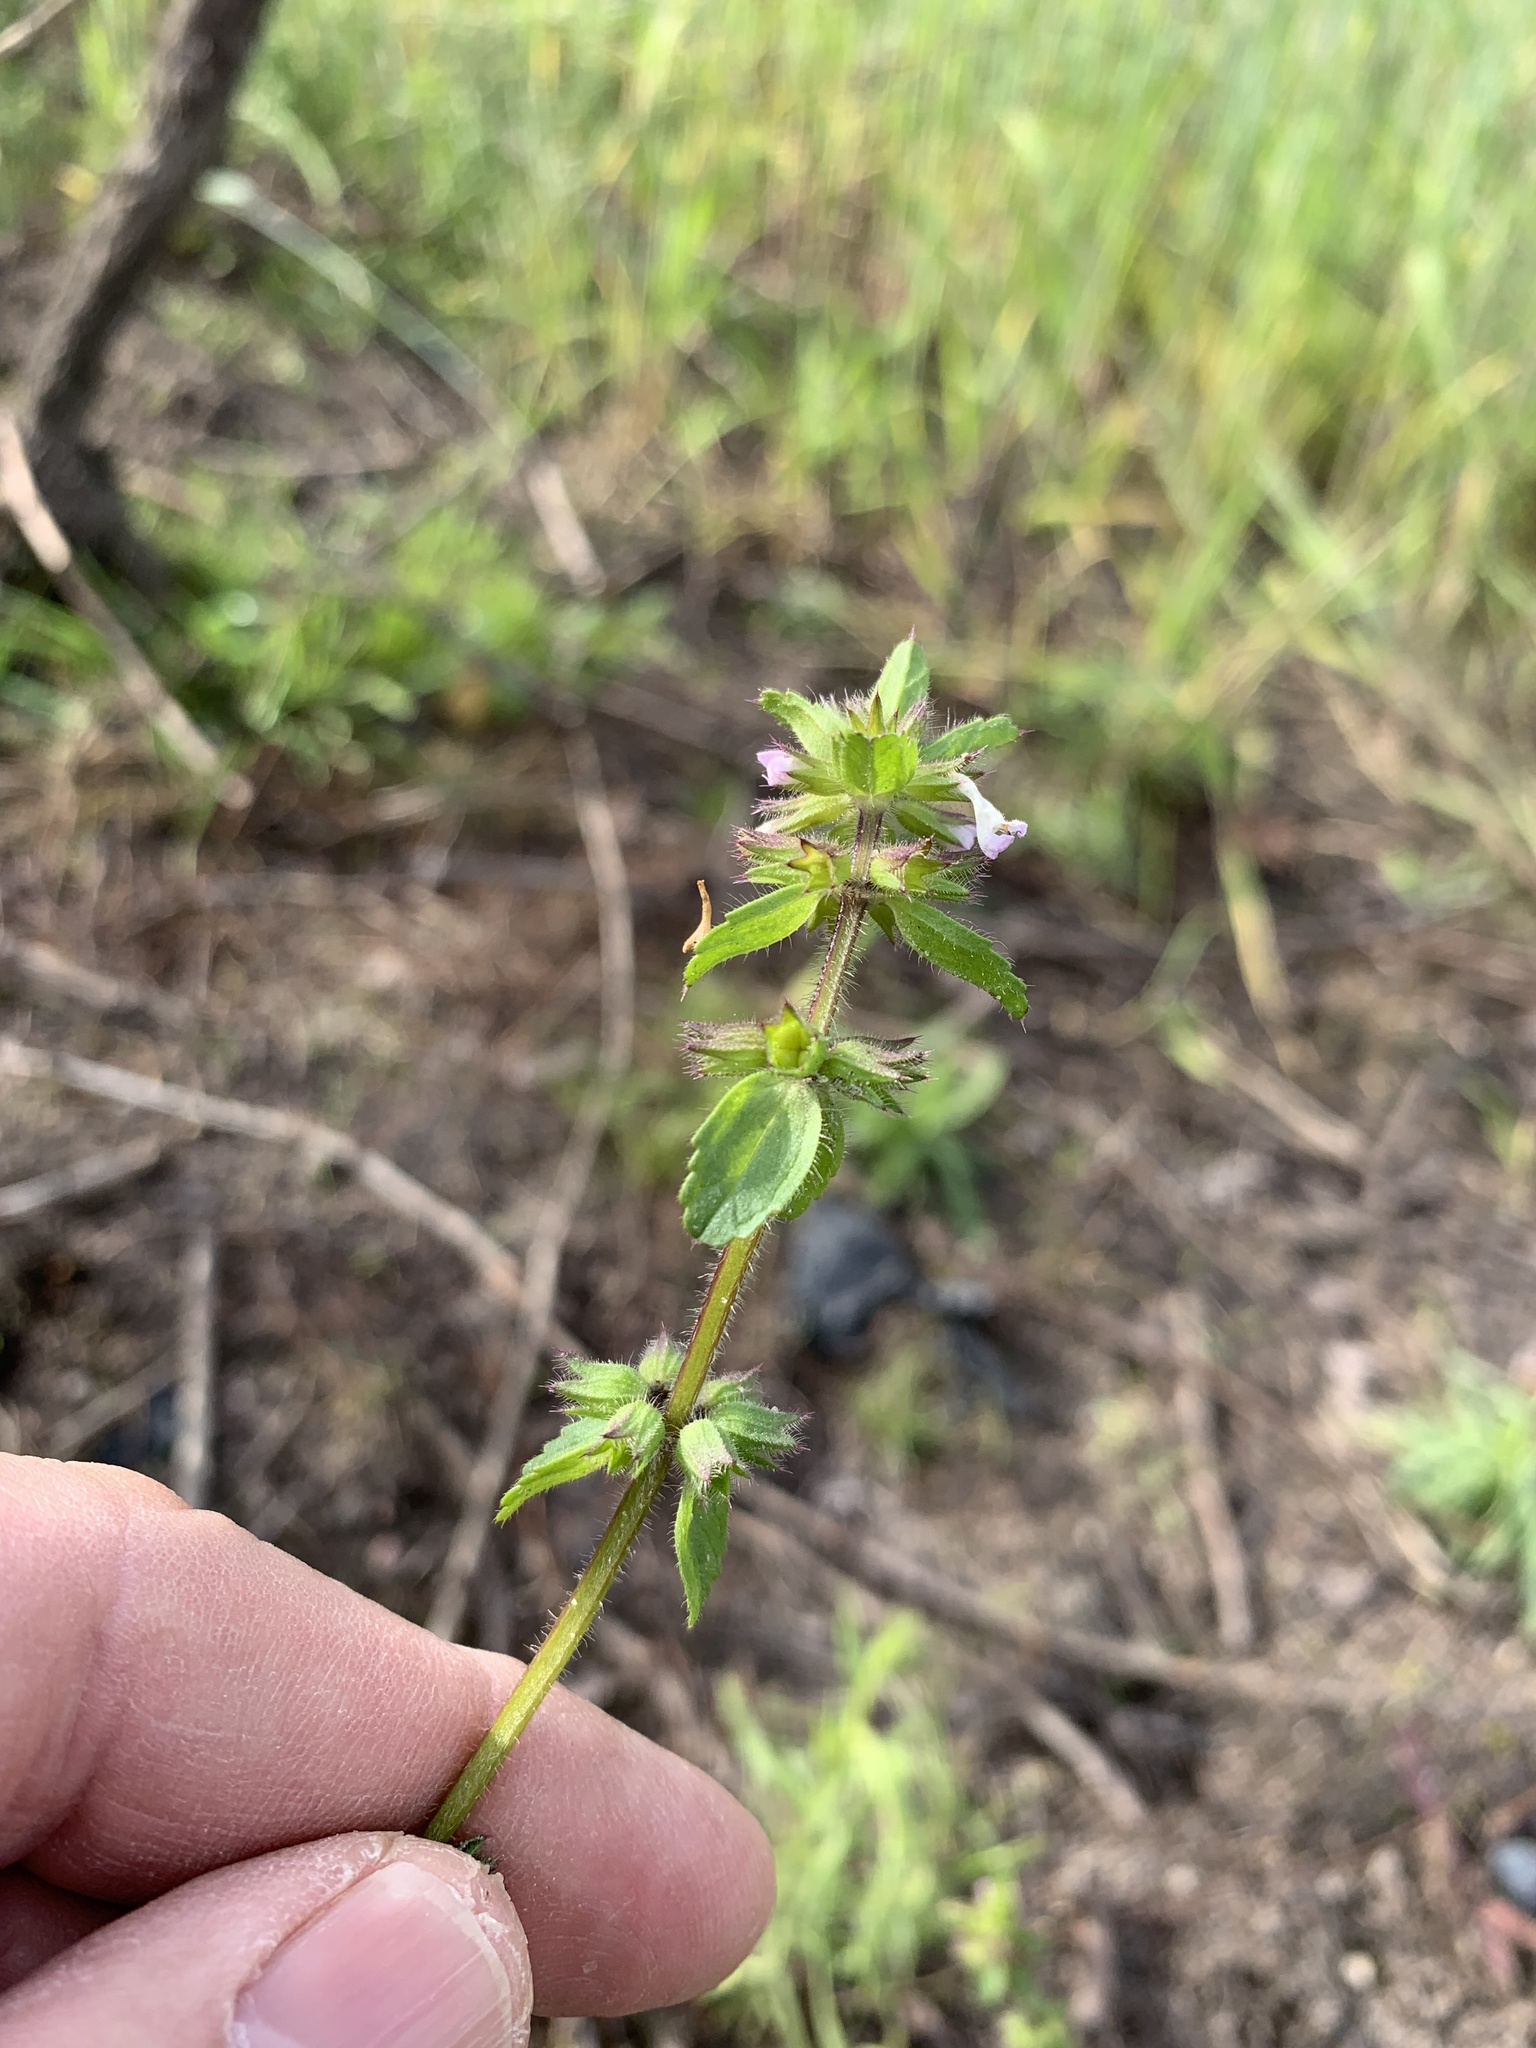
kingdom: Plantae
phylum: Tracheophyta
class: Magnoliopsida
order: Lamiales
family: Lamiaceae
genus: Stachys
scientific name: Stachys arvensis
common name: Field woundwort
